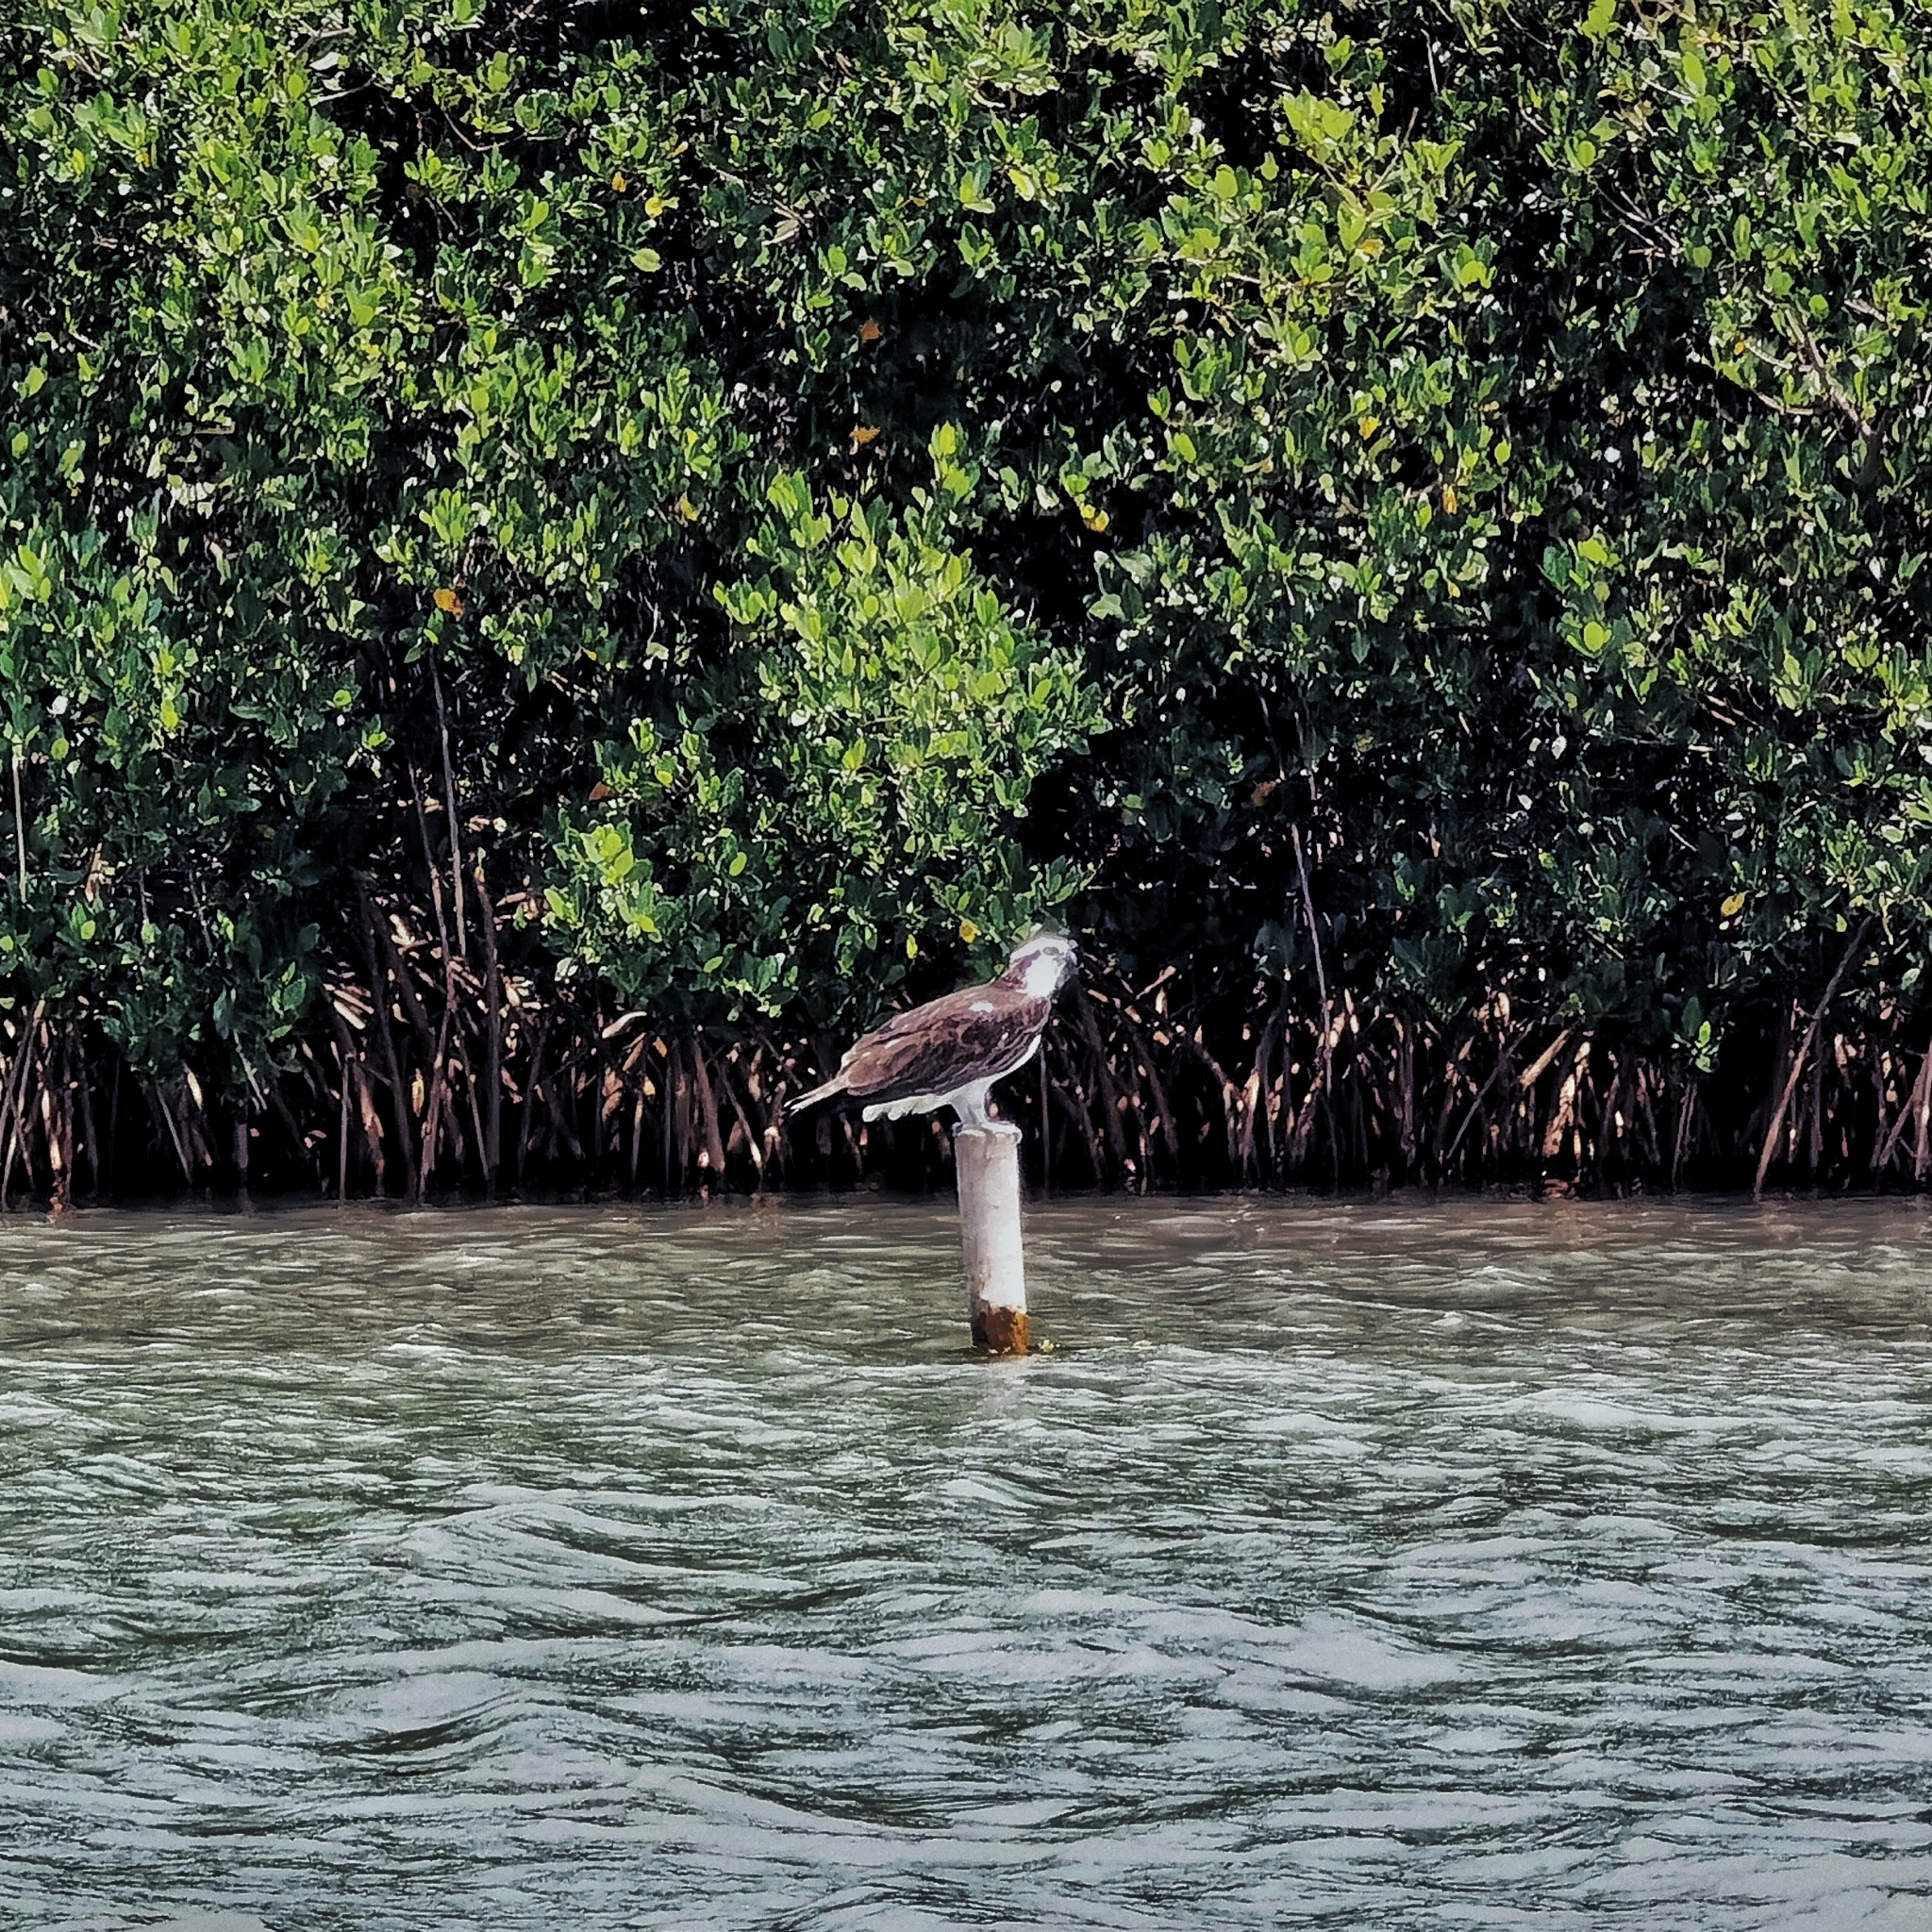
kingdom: Animalia
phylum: Chordata
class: Aves
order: Accipitriformes
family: Pandionidae
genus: Pandion
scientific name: Pandion haliaetus
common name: Osprey
